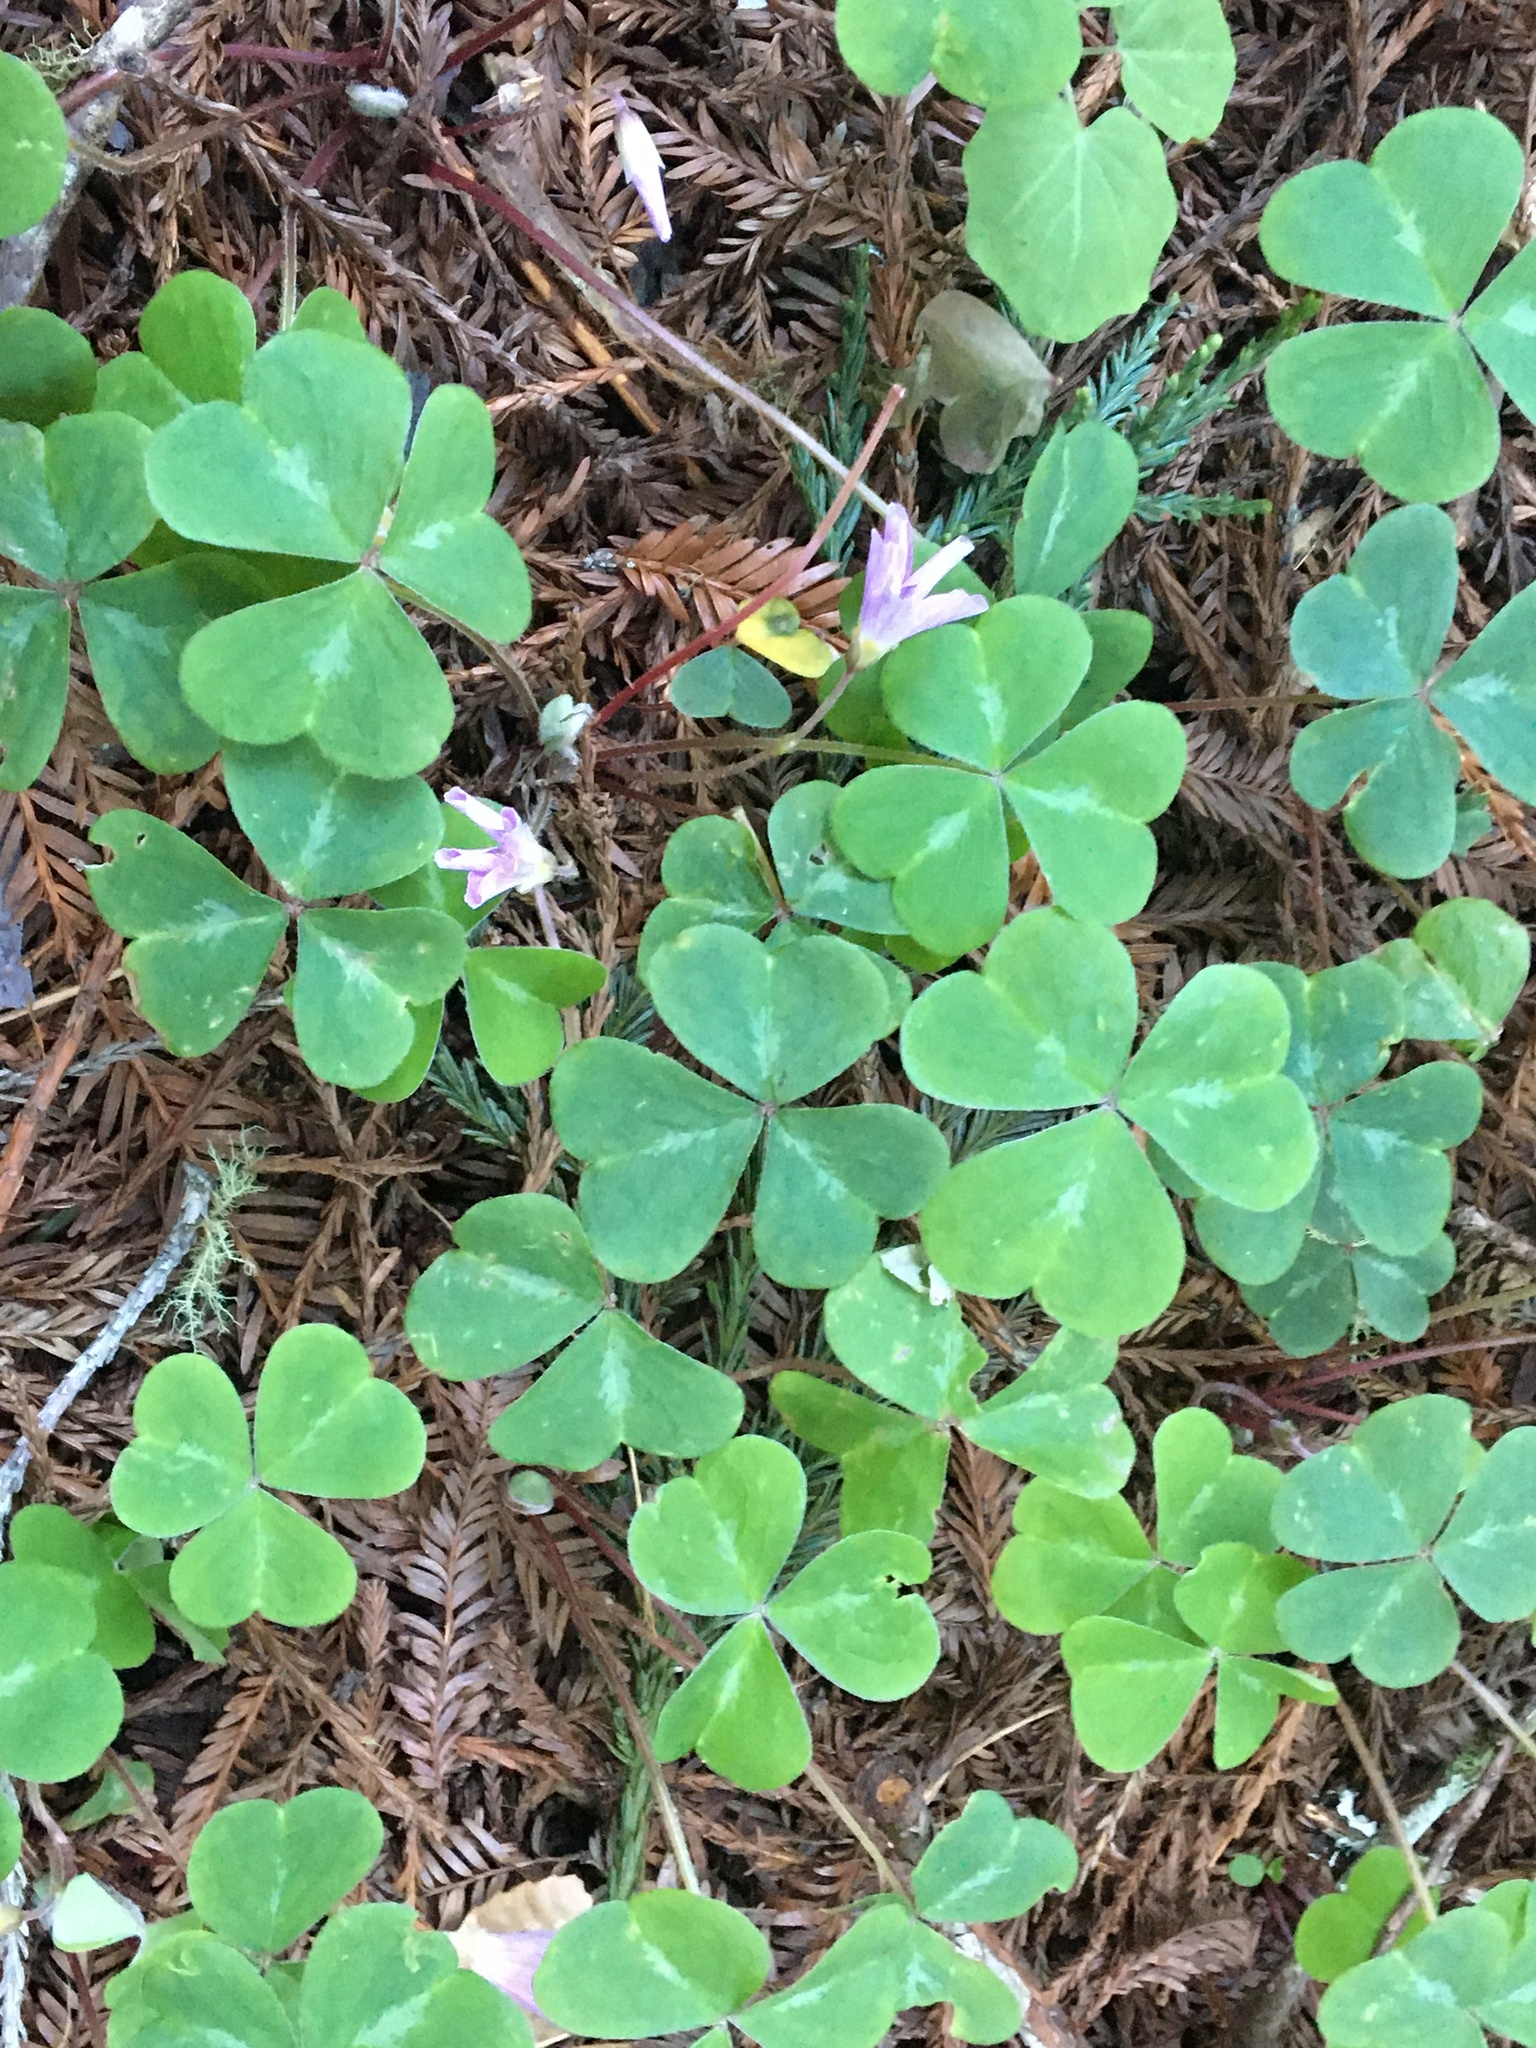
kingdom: Plantae
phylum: Tracheophyta
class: Magnoliopsida
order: Oxalidales
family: Oxalidaceae
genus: Oxalis
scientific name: Oxalis oregana
